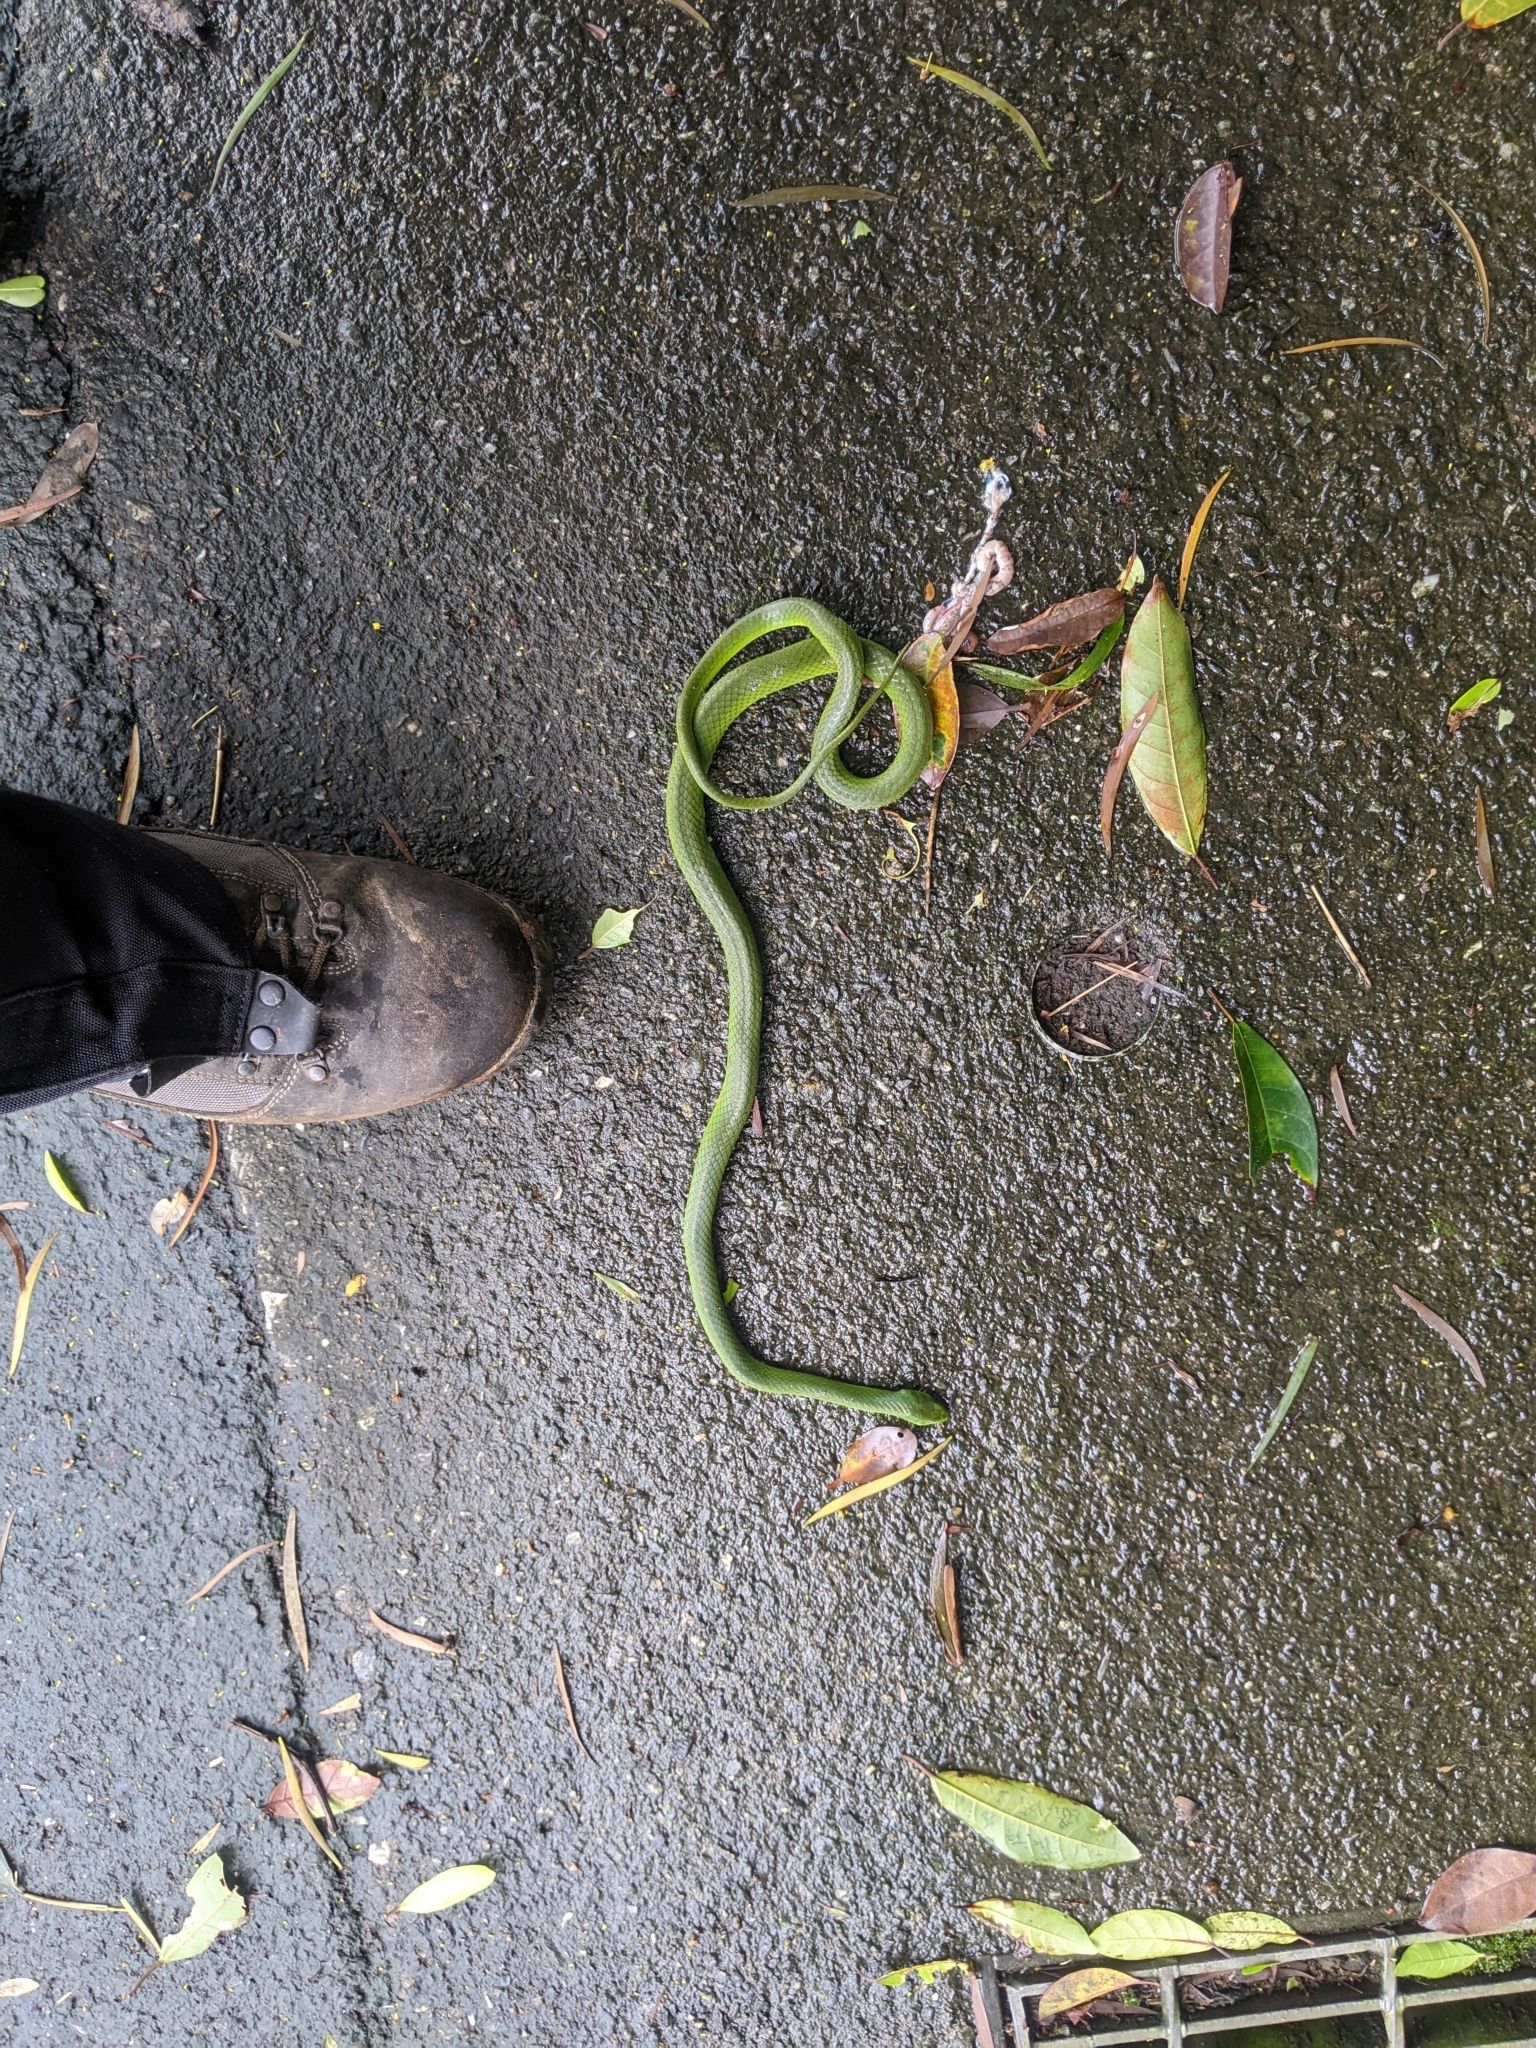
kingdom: Animalia
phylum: Chordata
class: Squamata
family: Colubridae
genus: Ptyas
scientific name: Ptyas major
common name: Chinese green snake
